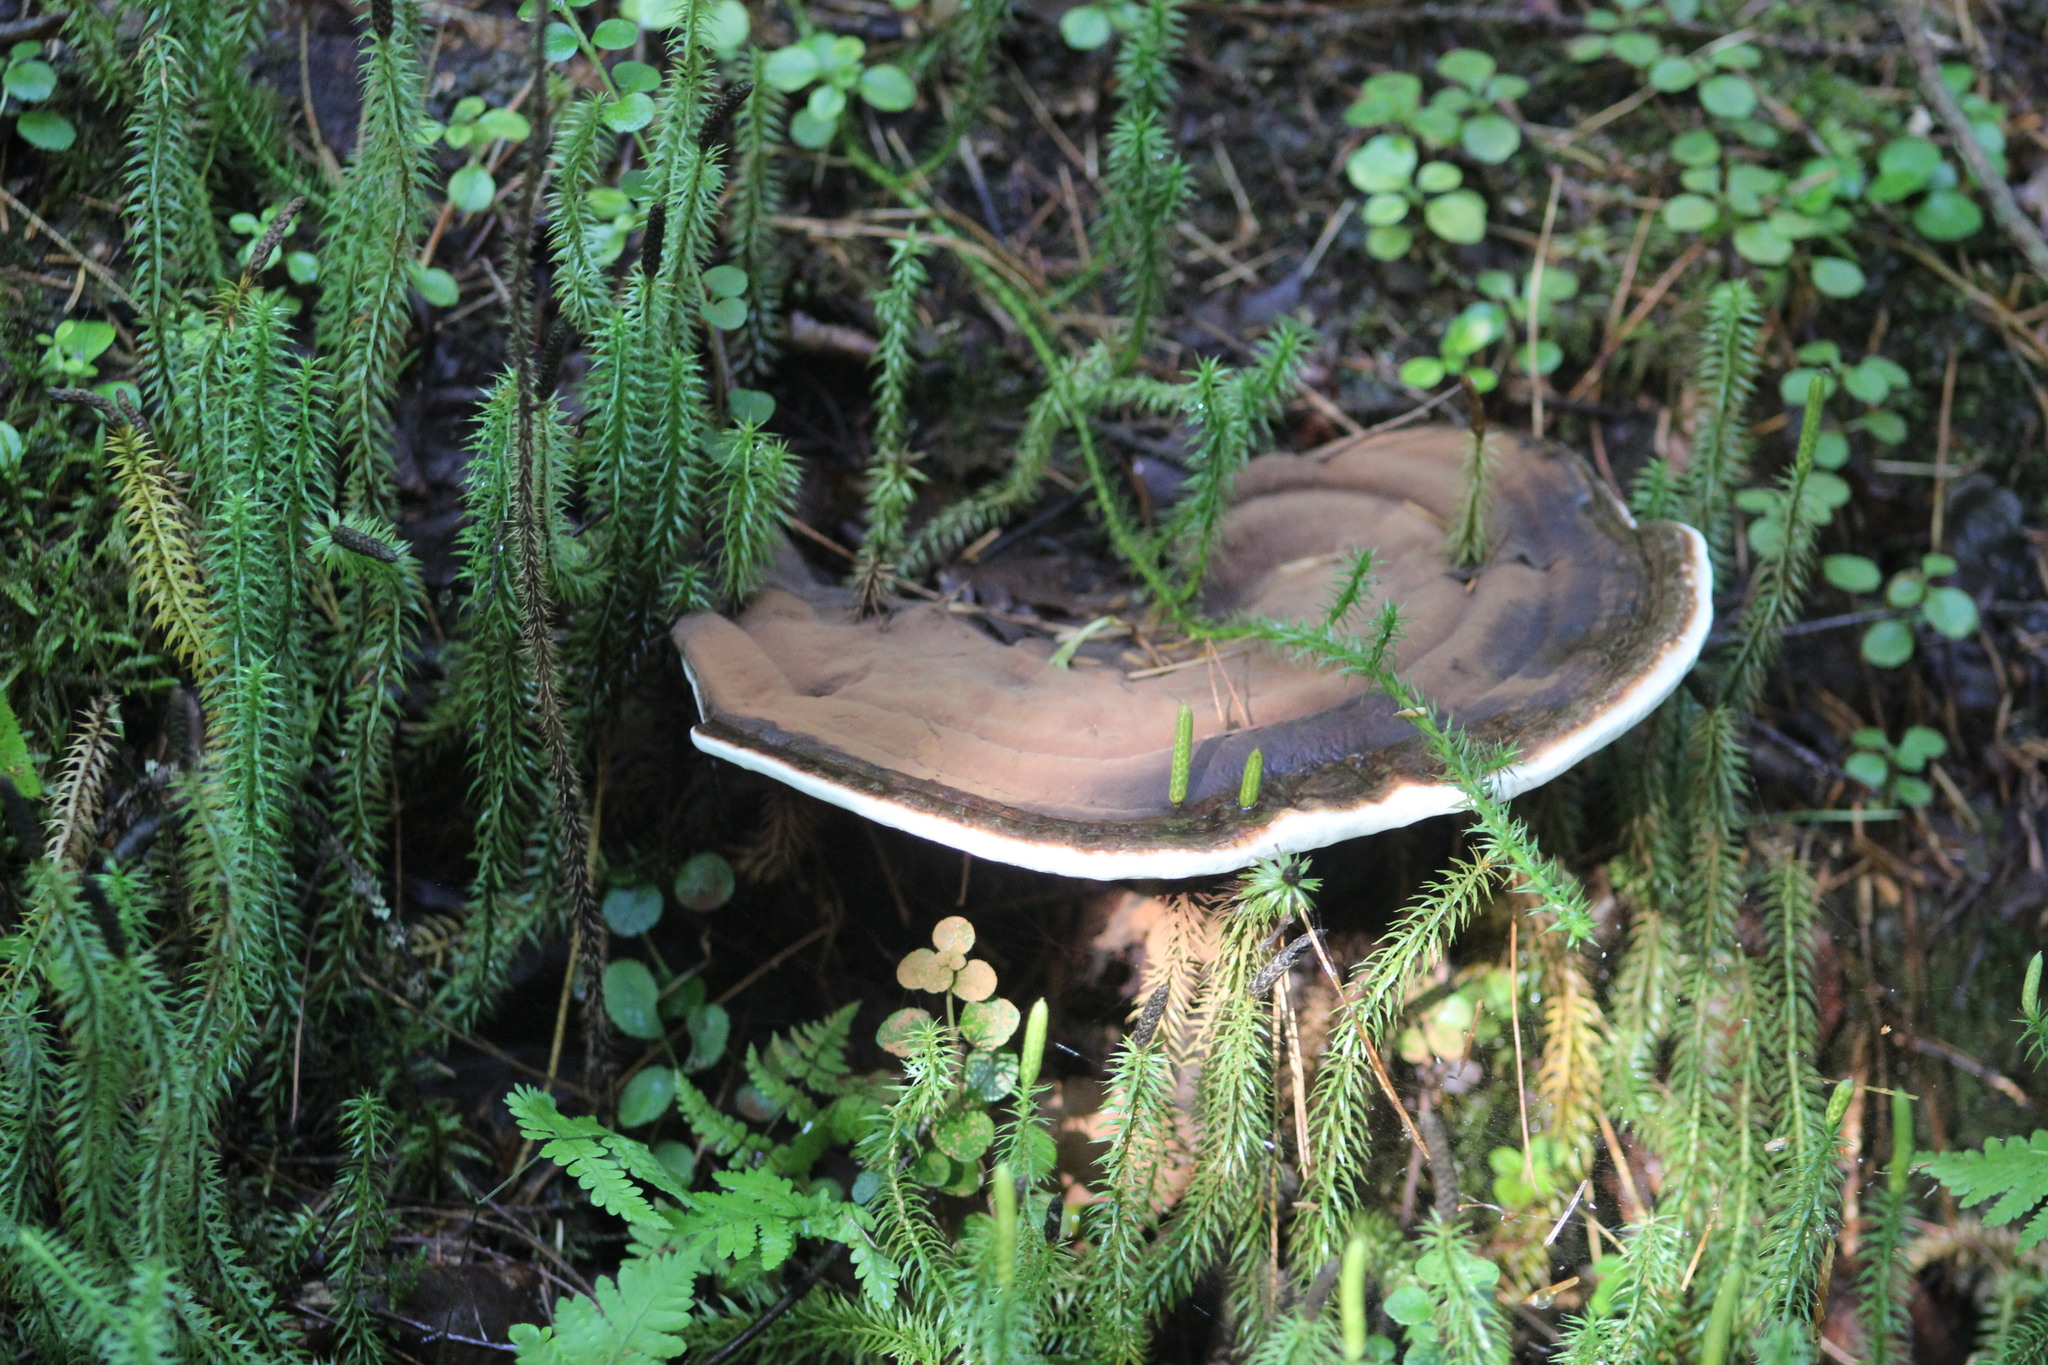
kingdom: Fungi
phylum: Basidiomycota
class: Agaricomycetes
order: Polyporales
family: Polyporaceae
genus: Ganoderma
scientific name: Ganoderma applanatum
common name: Artist's bracket
